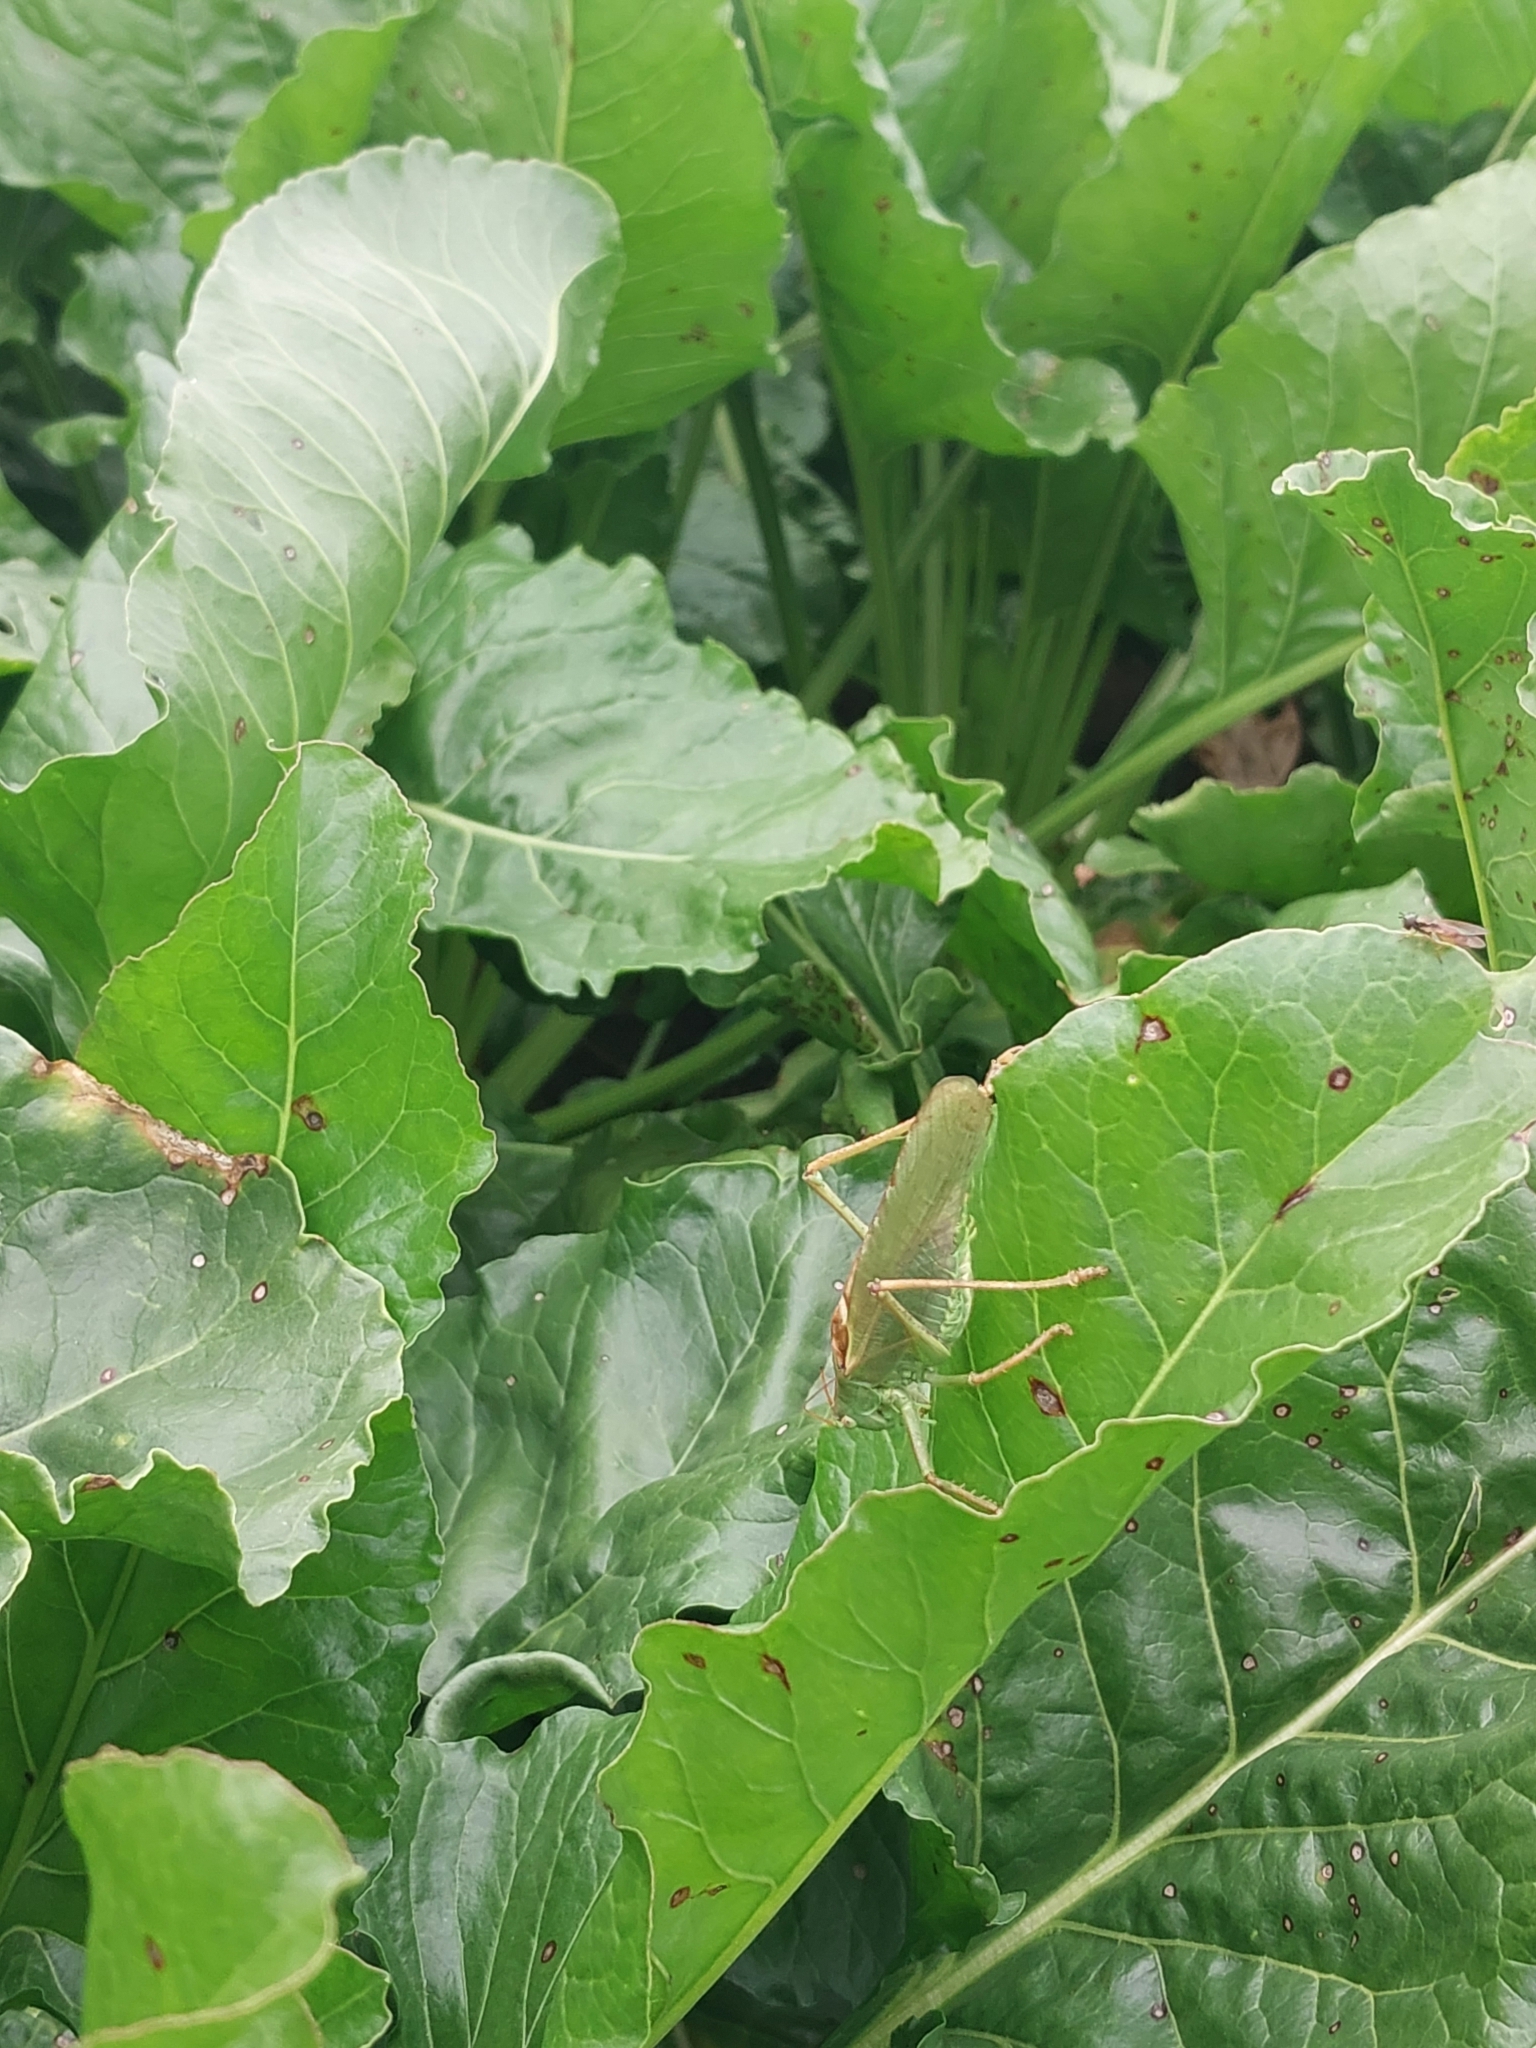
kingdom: Animalia
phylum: Arthropoda
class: Insecta
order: Orthoptera
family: Tettigoniidae
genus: Tettigonia
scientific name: Tettigonia viridissima
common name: Great green bush-cricket
